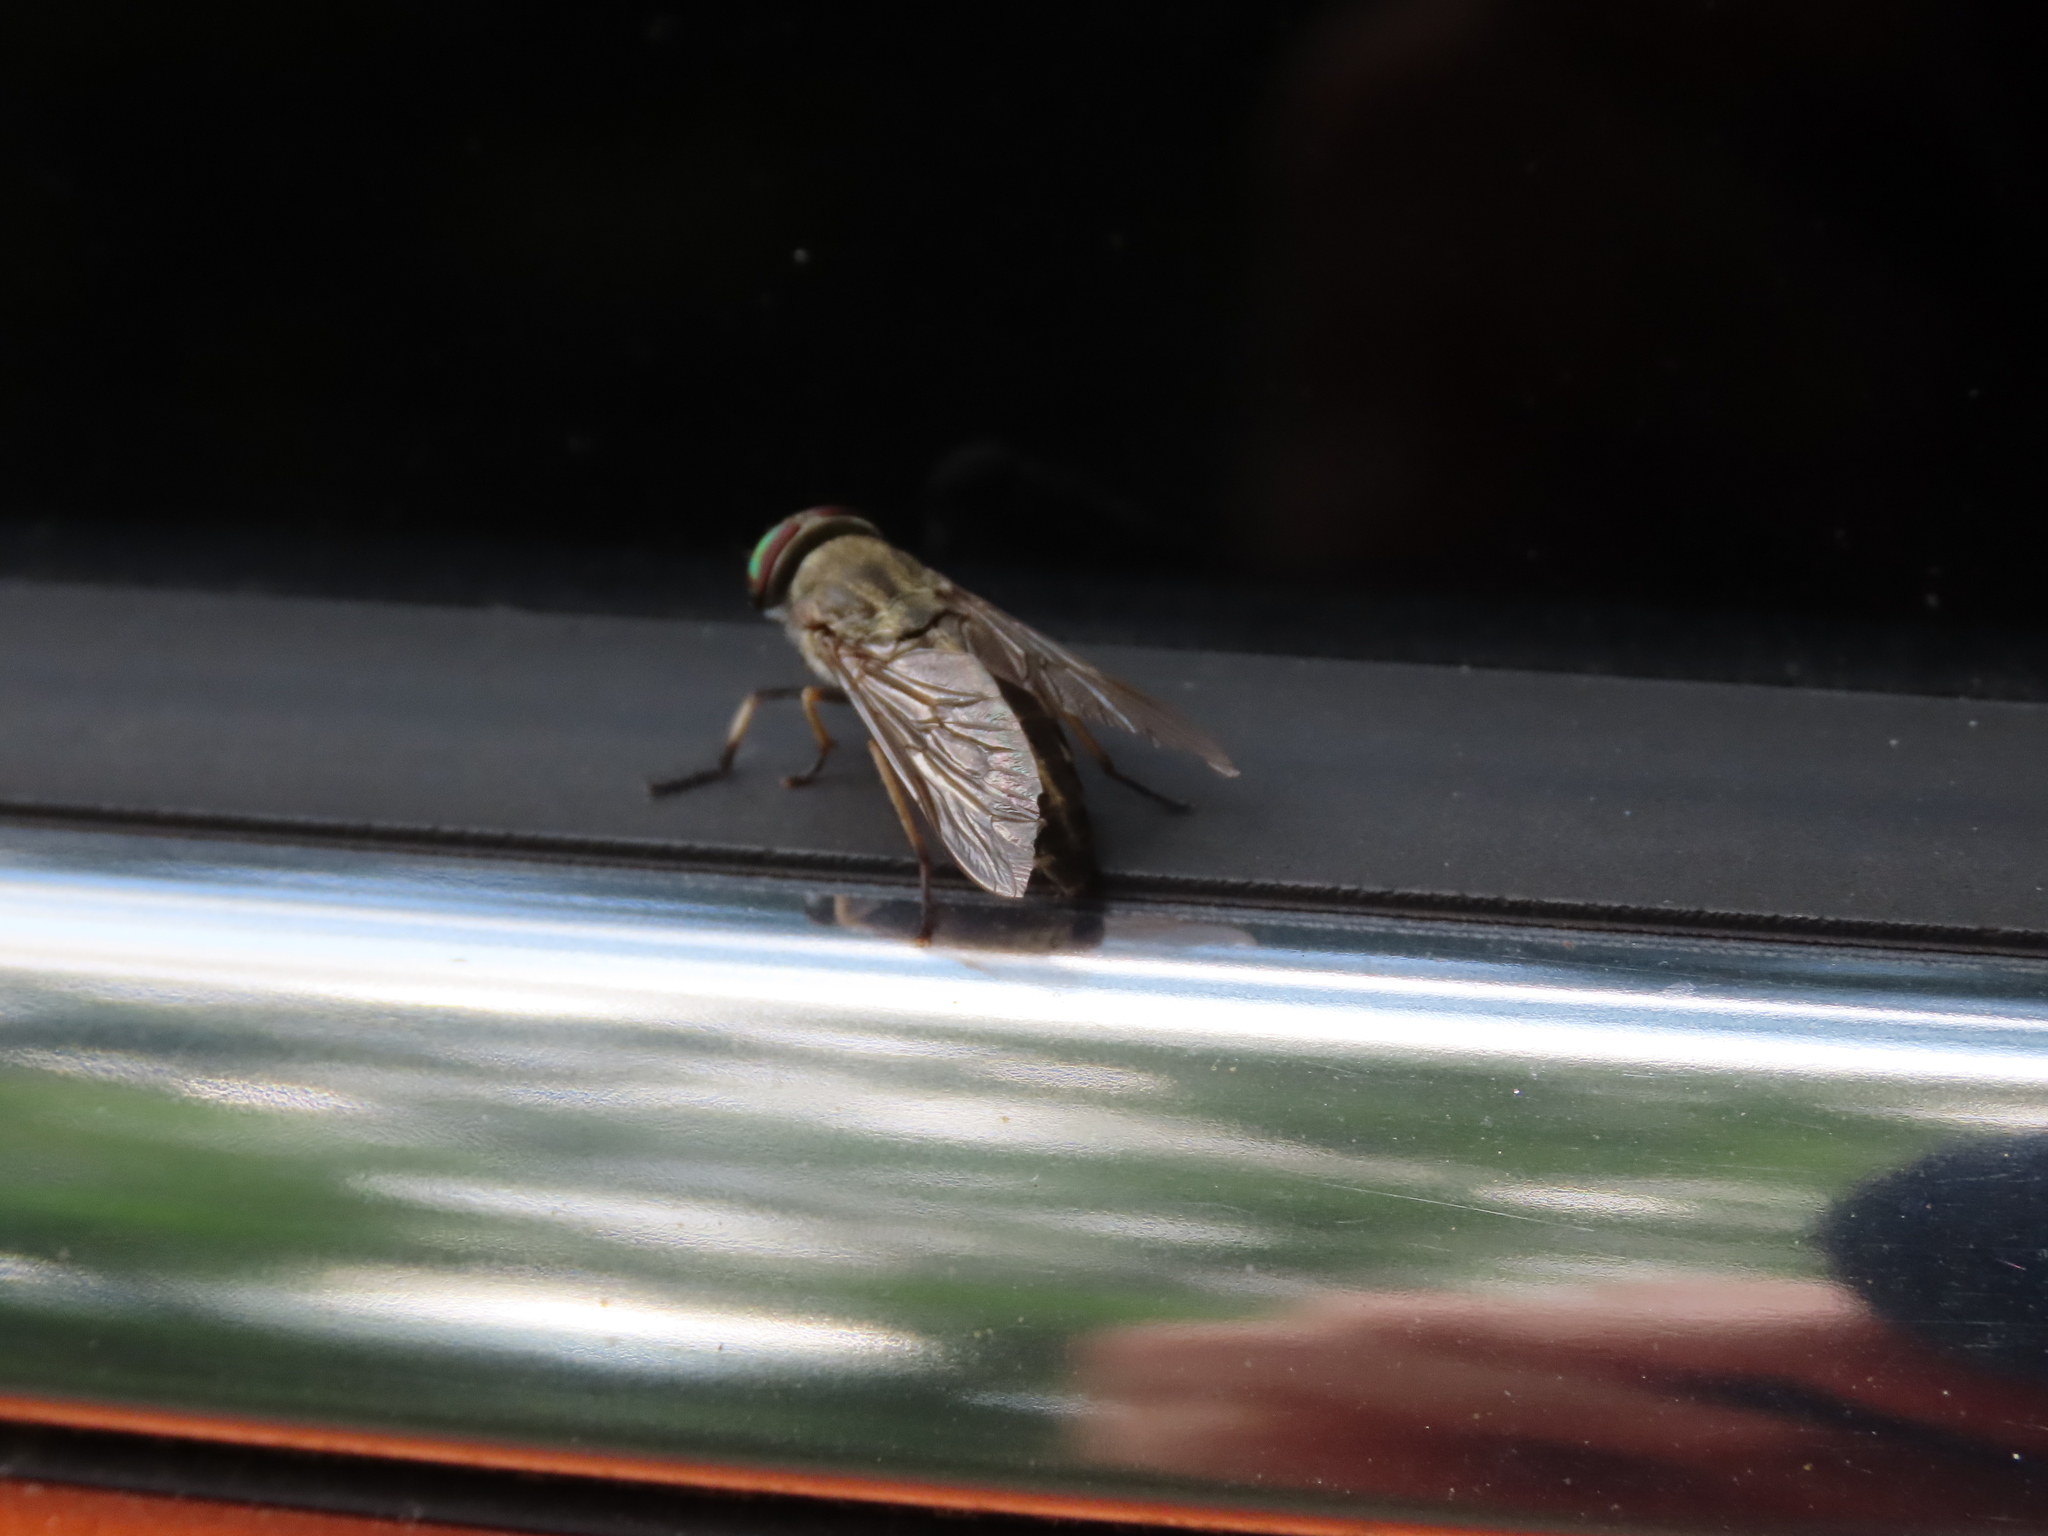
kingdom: Animalia
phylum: Arthropoda
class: Insecta
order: Diptera
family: Tabanidae
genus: Tabanus
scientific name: Tabanus lineola
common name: Striped horse fly
